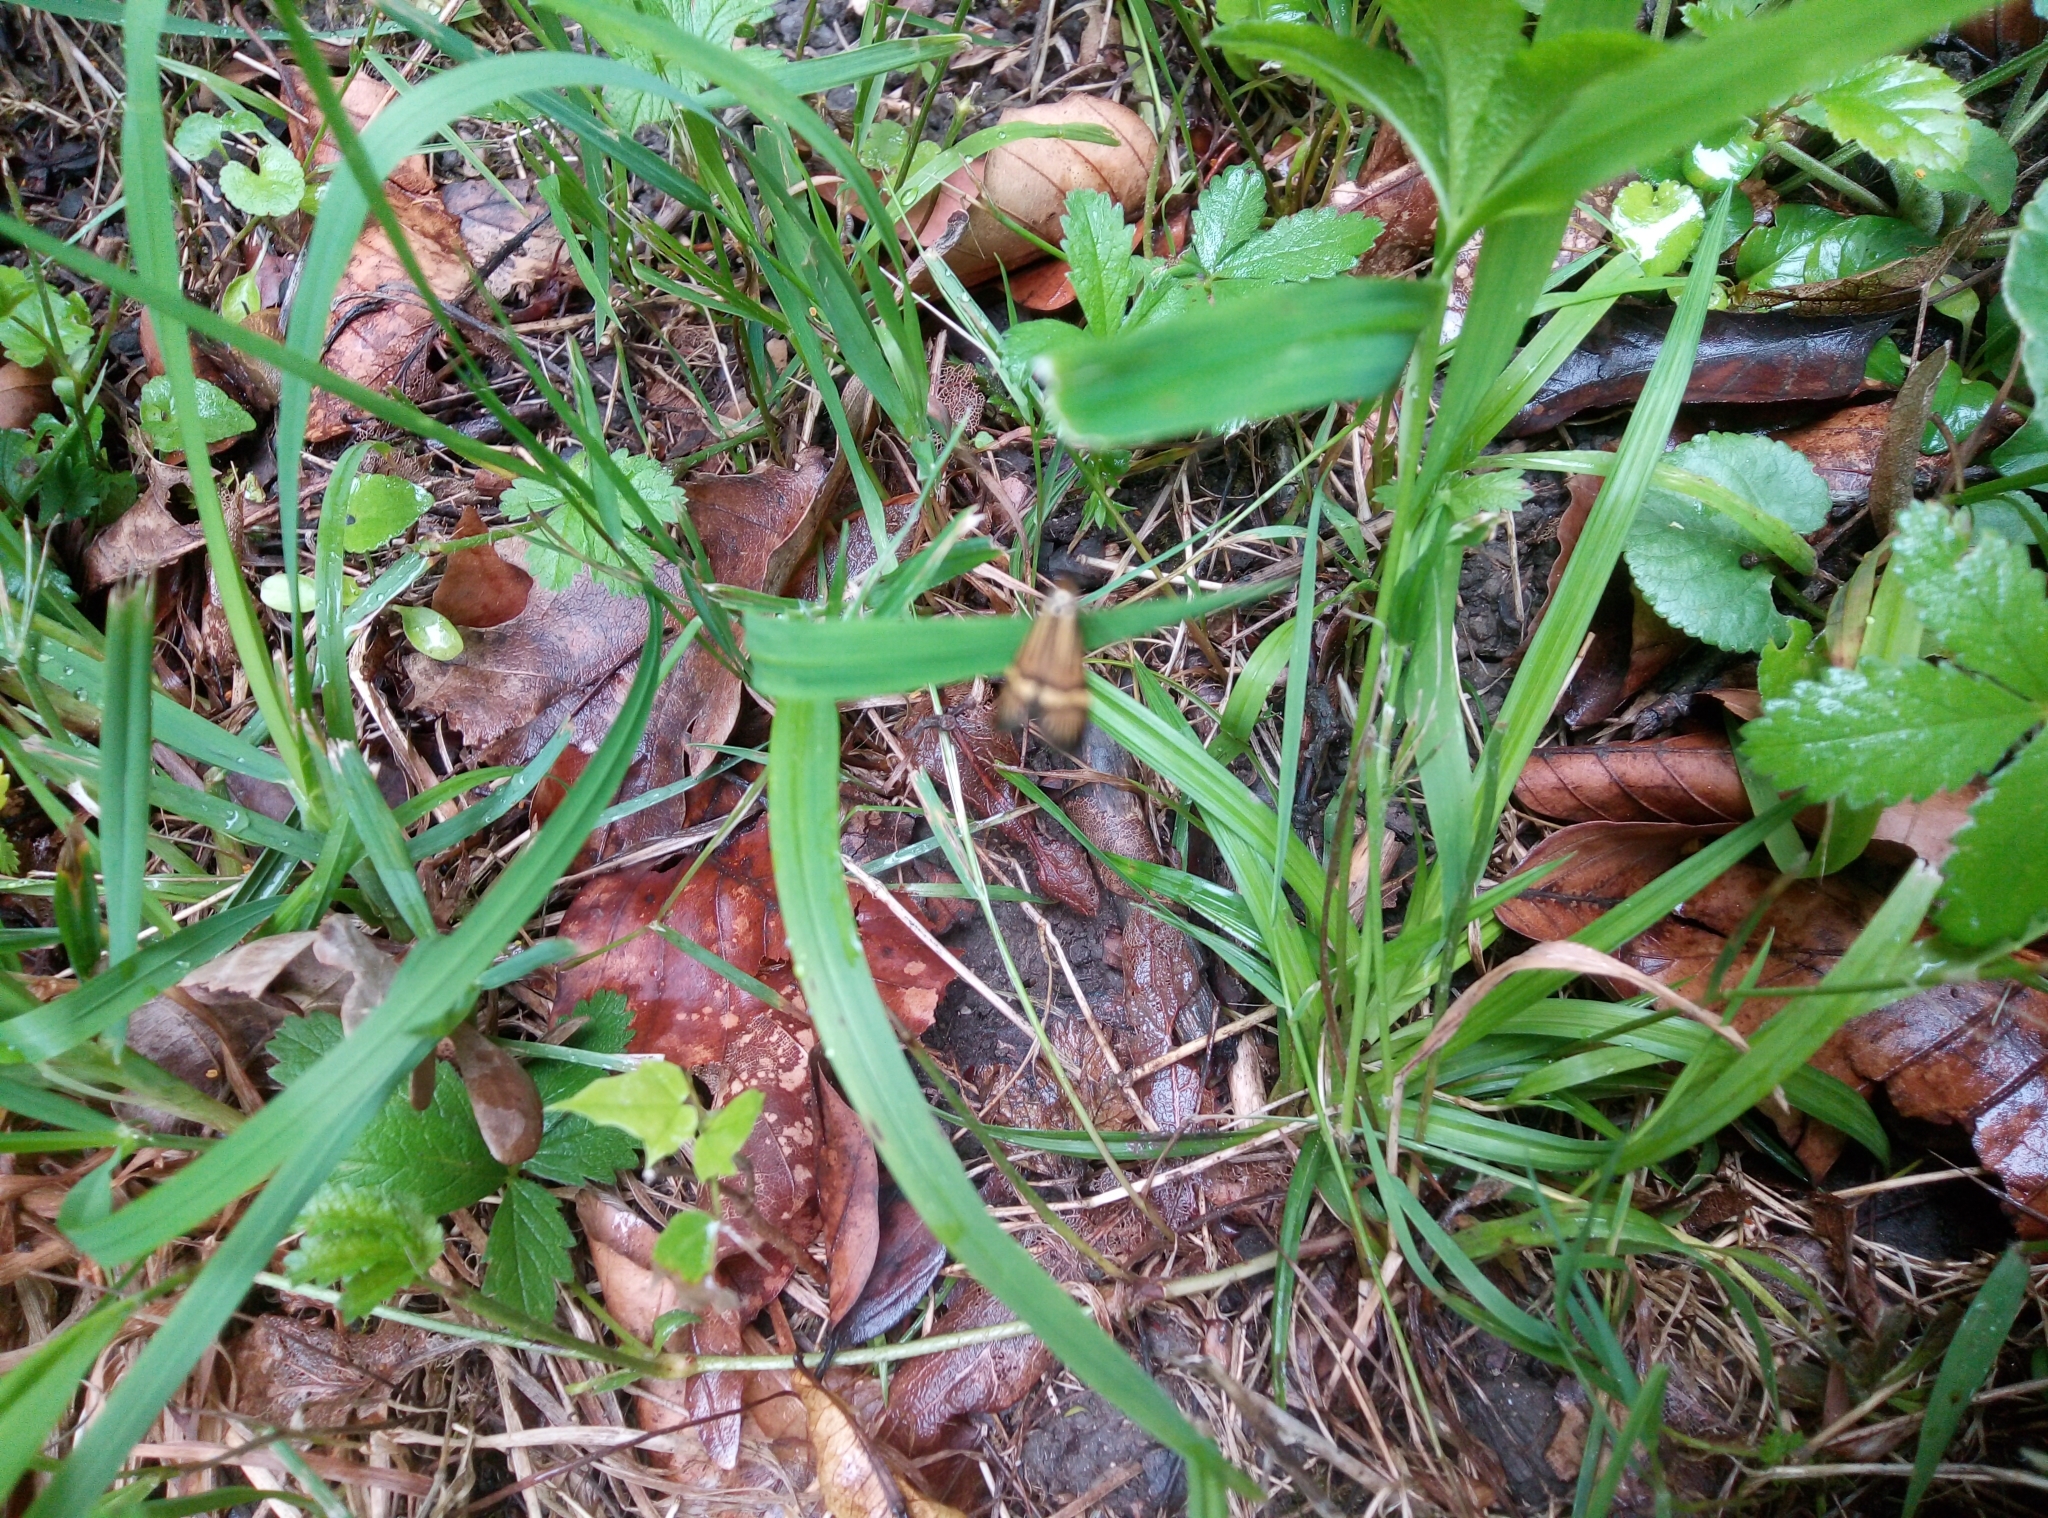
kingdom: Animalia
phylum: Arthropoda
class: Insecta
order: Lepidoptera
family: Adelidae
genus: Nemophora
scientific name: Nemophora
